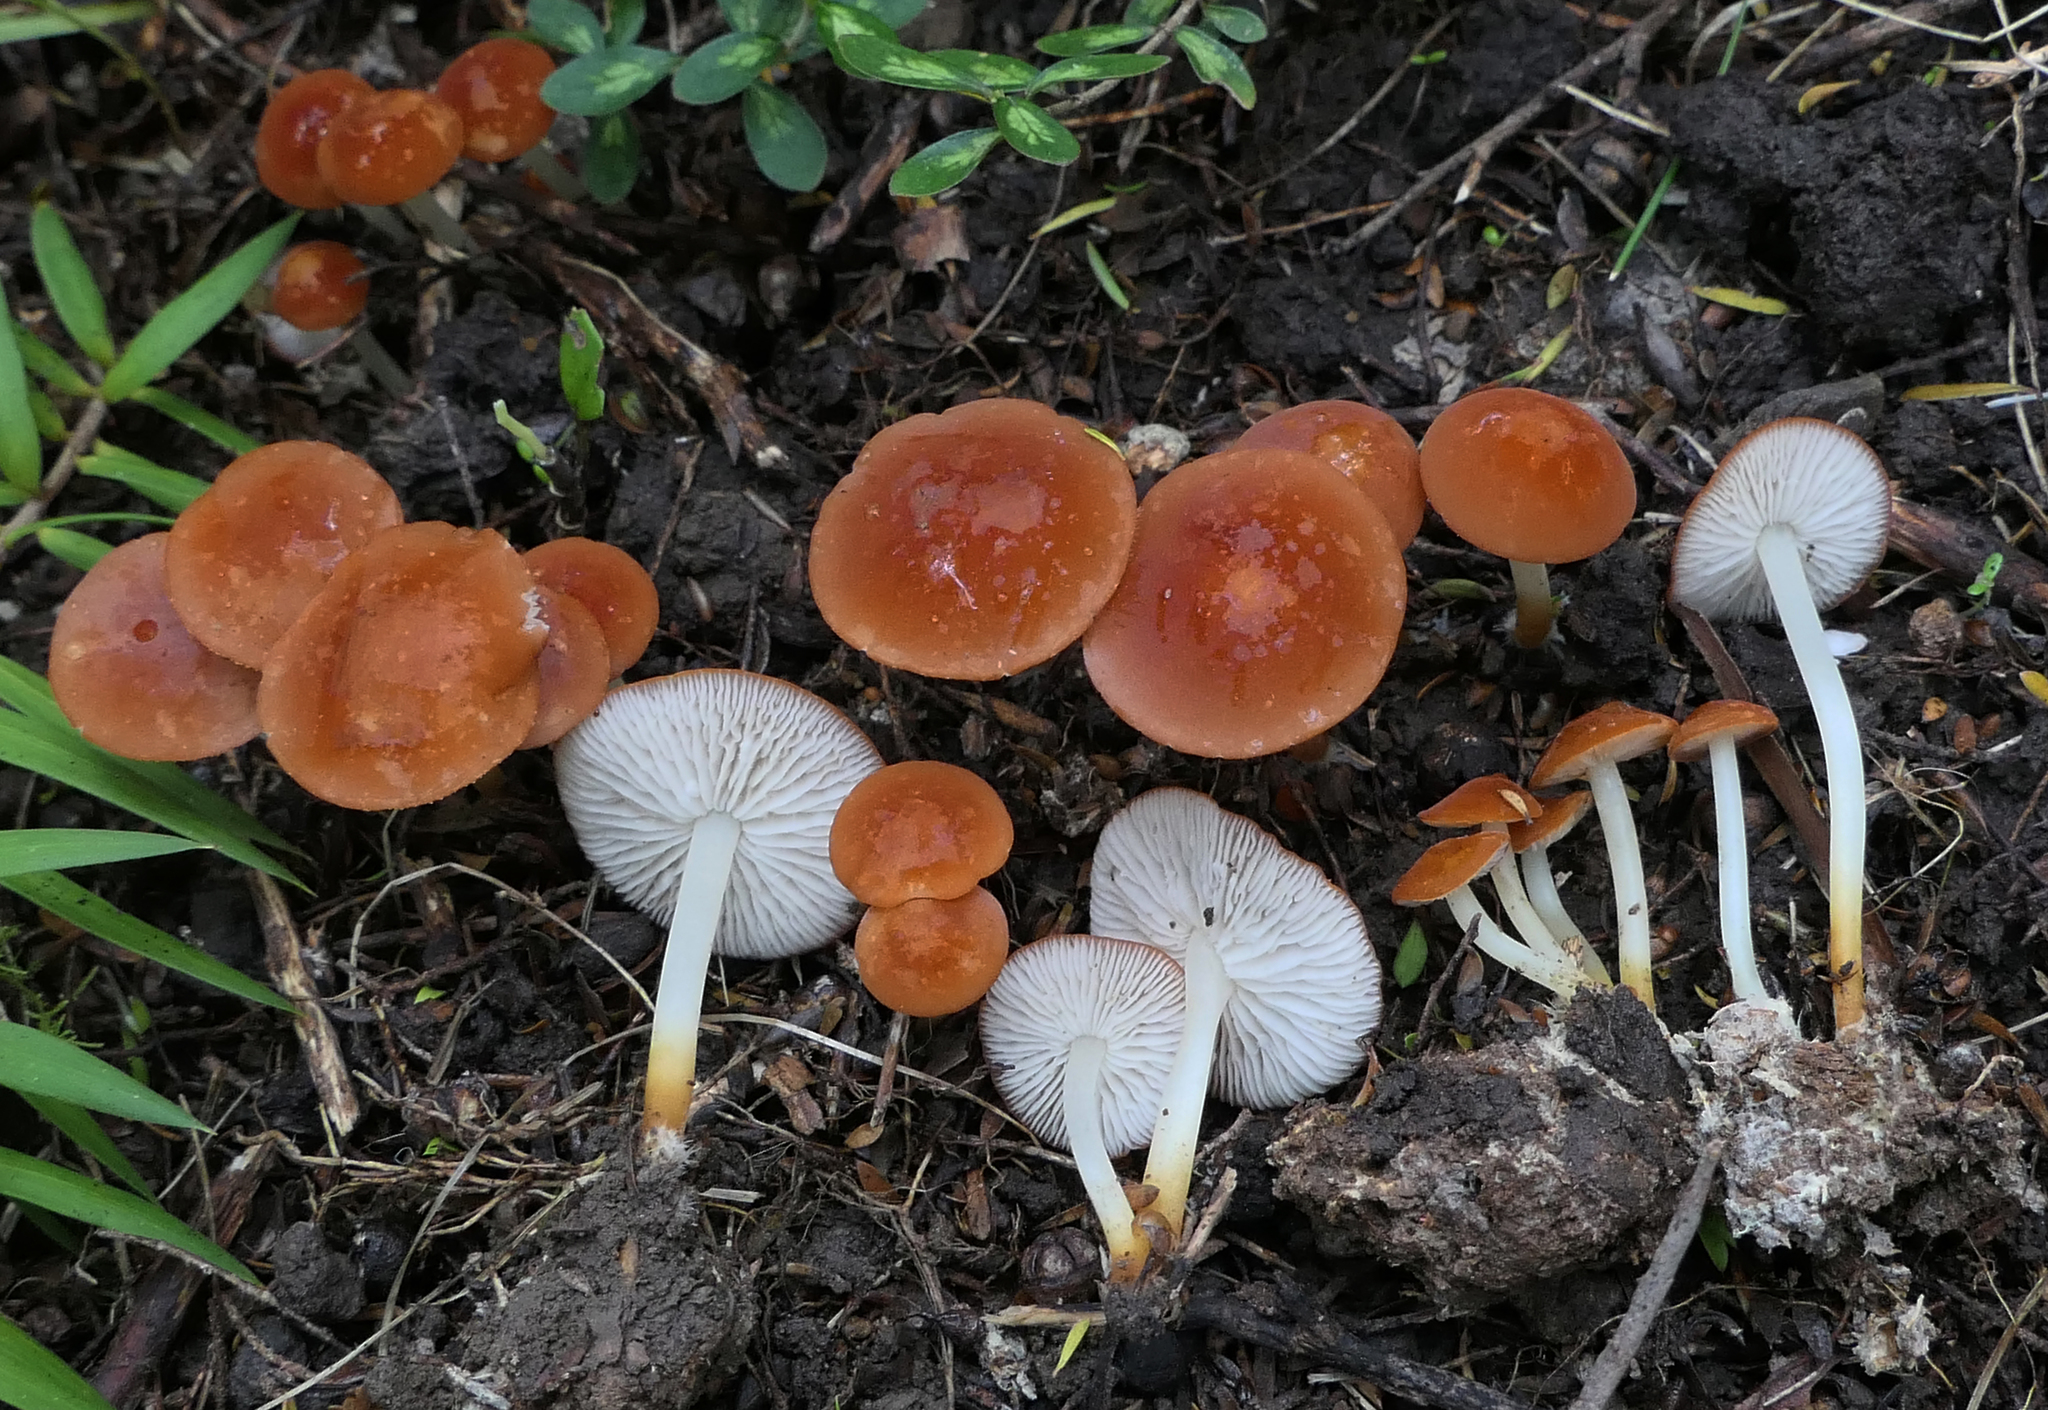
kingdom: Fungi
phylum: Basidiomycota
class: Agaricomycetes
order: Agaricales
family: Marasmiaceae
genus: Marasmius
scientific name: Marasmius elegans
